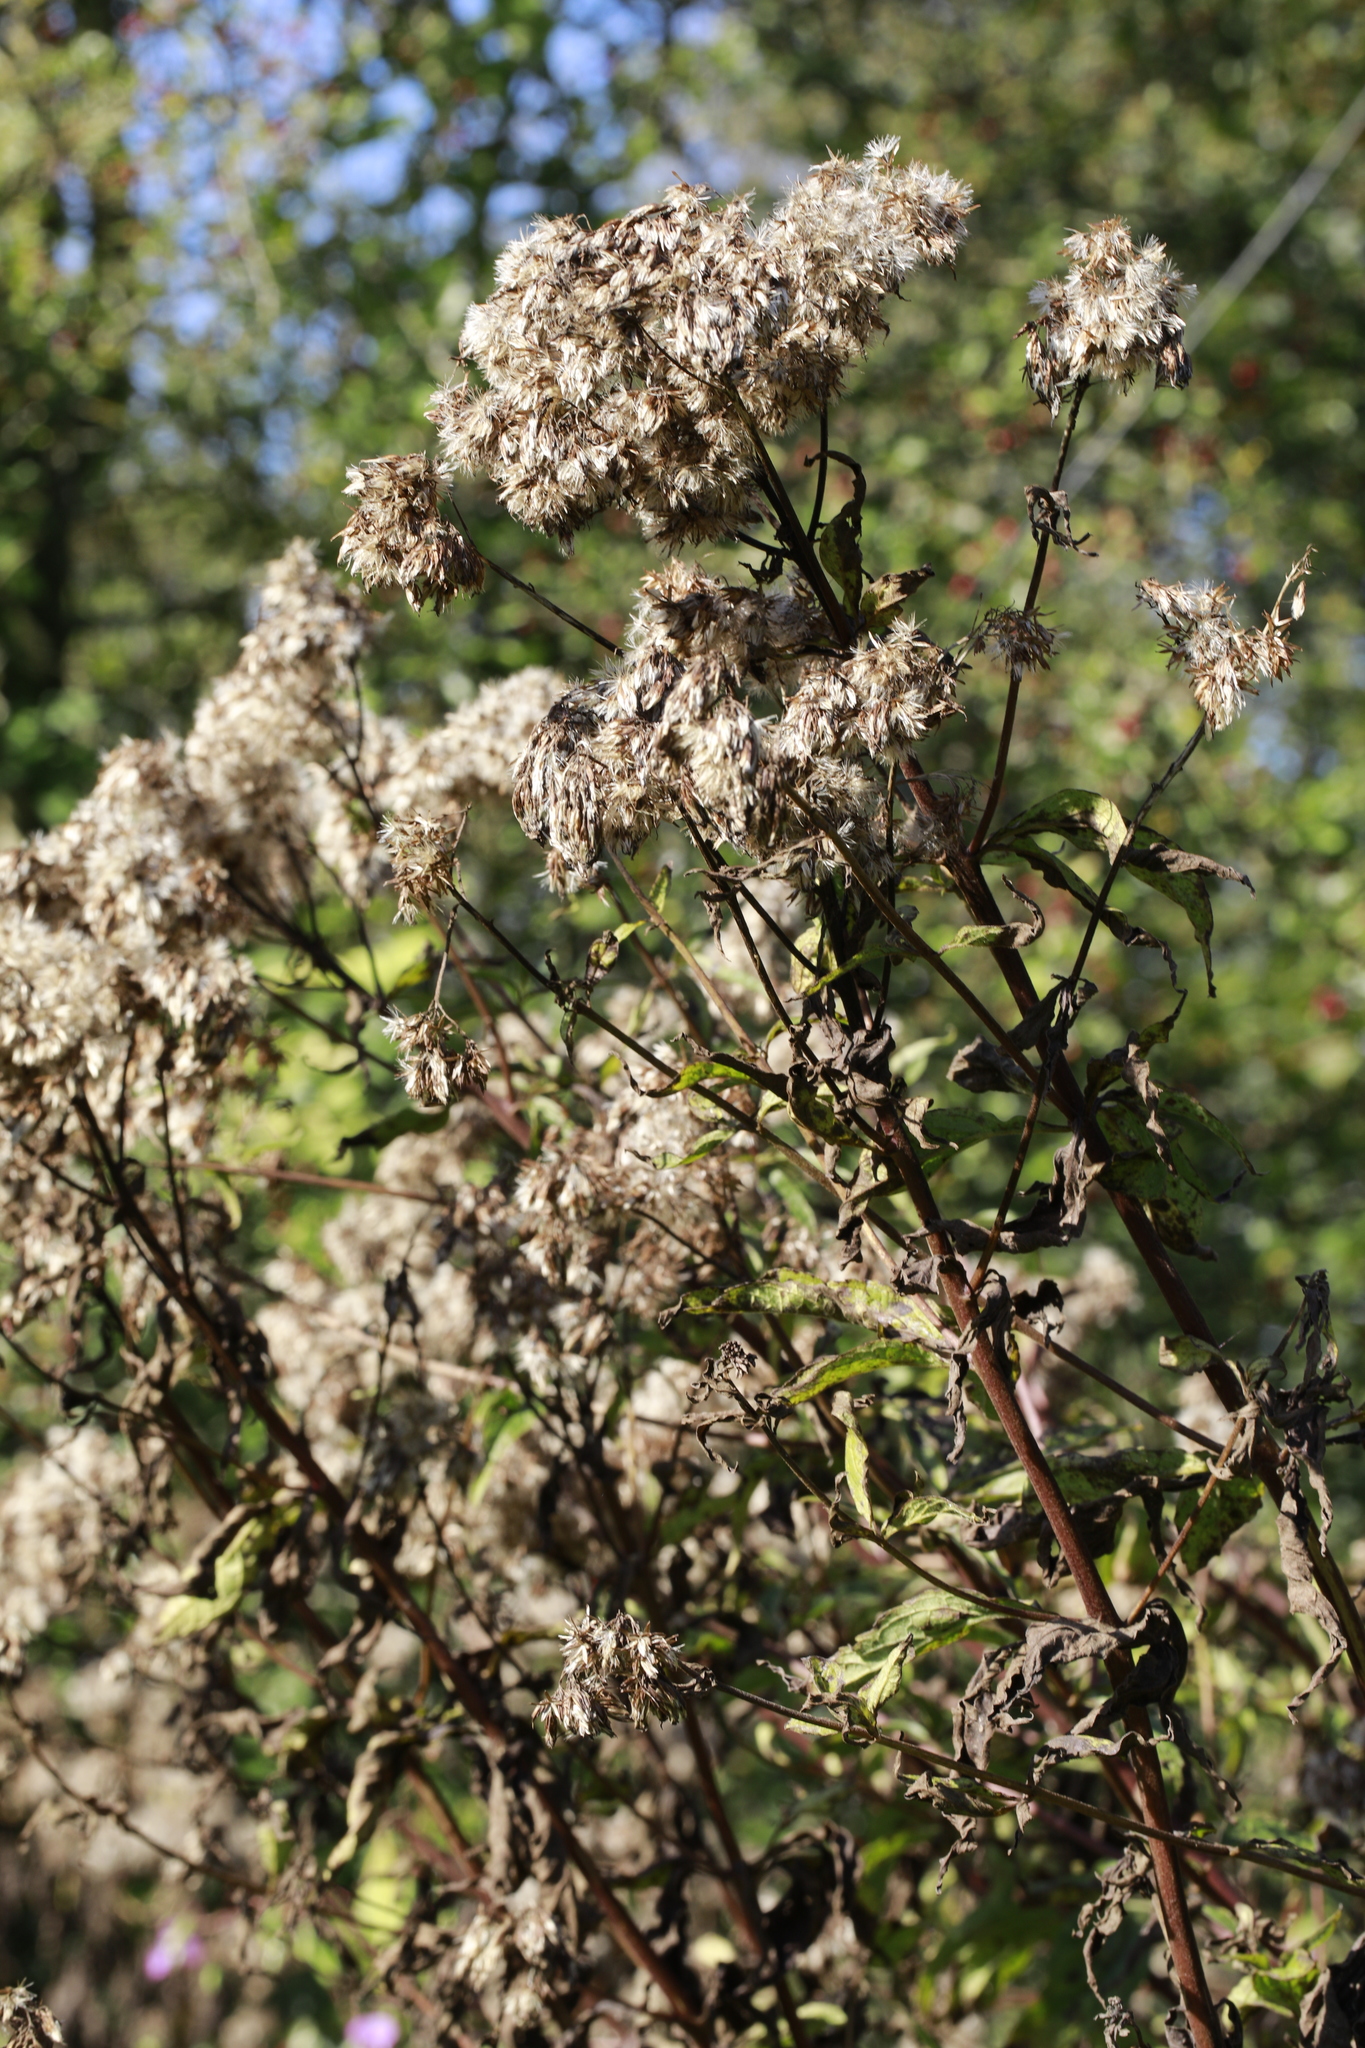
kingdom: Plantae
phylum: Tracheophyta
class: Magnoliopsida
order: Asterales
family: Asteraceae
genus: Eupatorium
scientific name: Eupatorium cannabinum
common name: Hemp-agrimony
